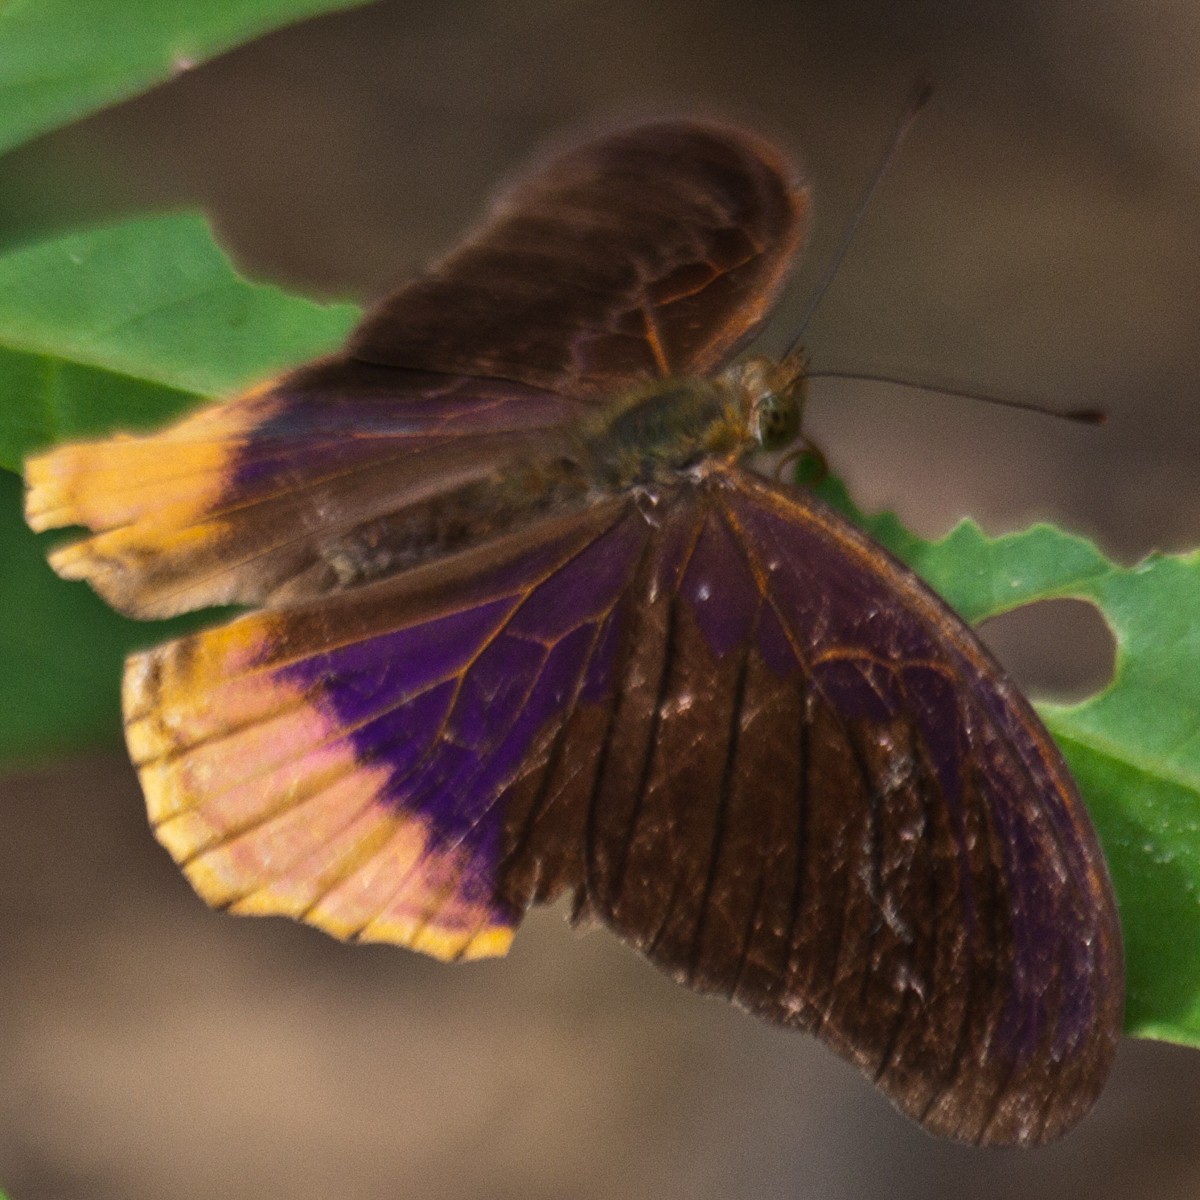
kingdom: Animalia
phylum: Arthropoda
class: Insecta
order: Lepidoptera
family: Nymphalidae
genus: Terinos
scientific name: Terinos terpander
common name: Royal assyrian
